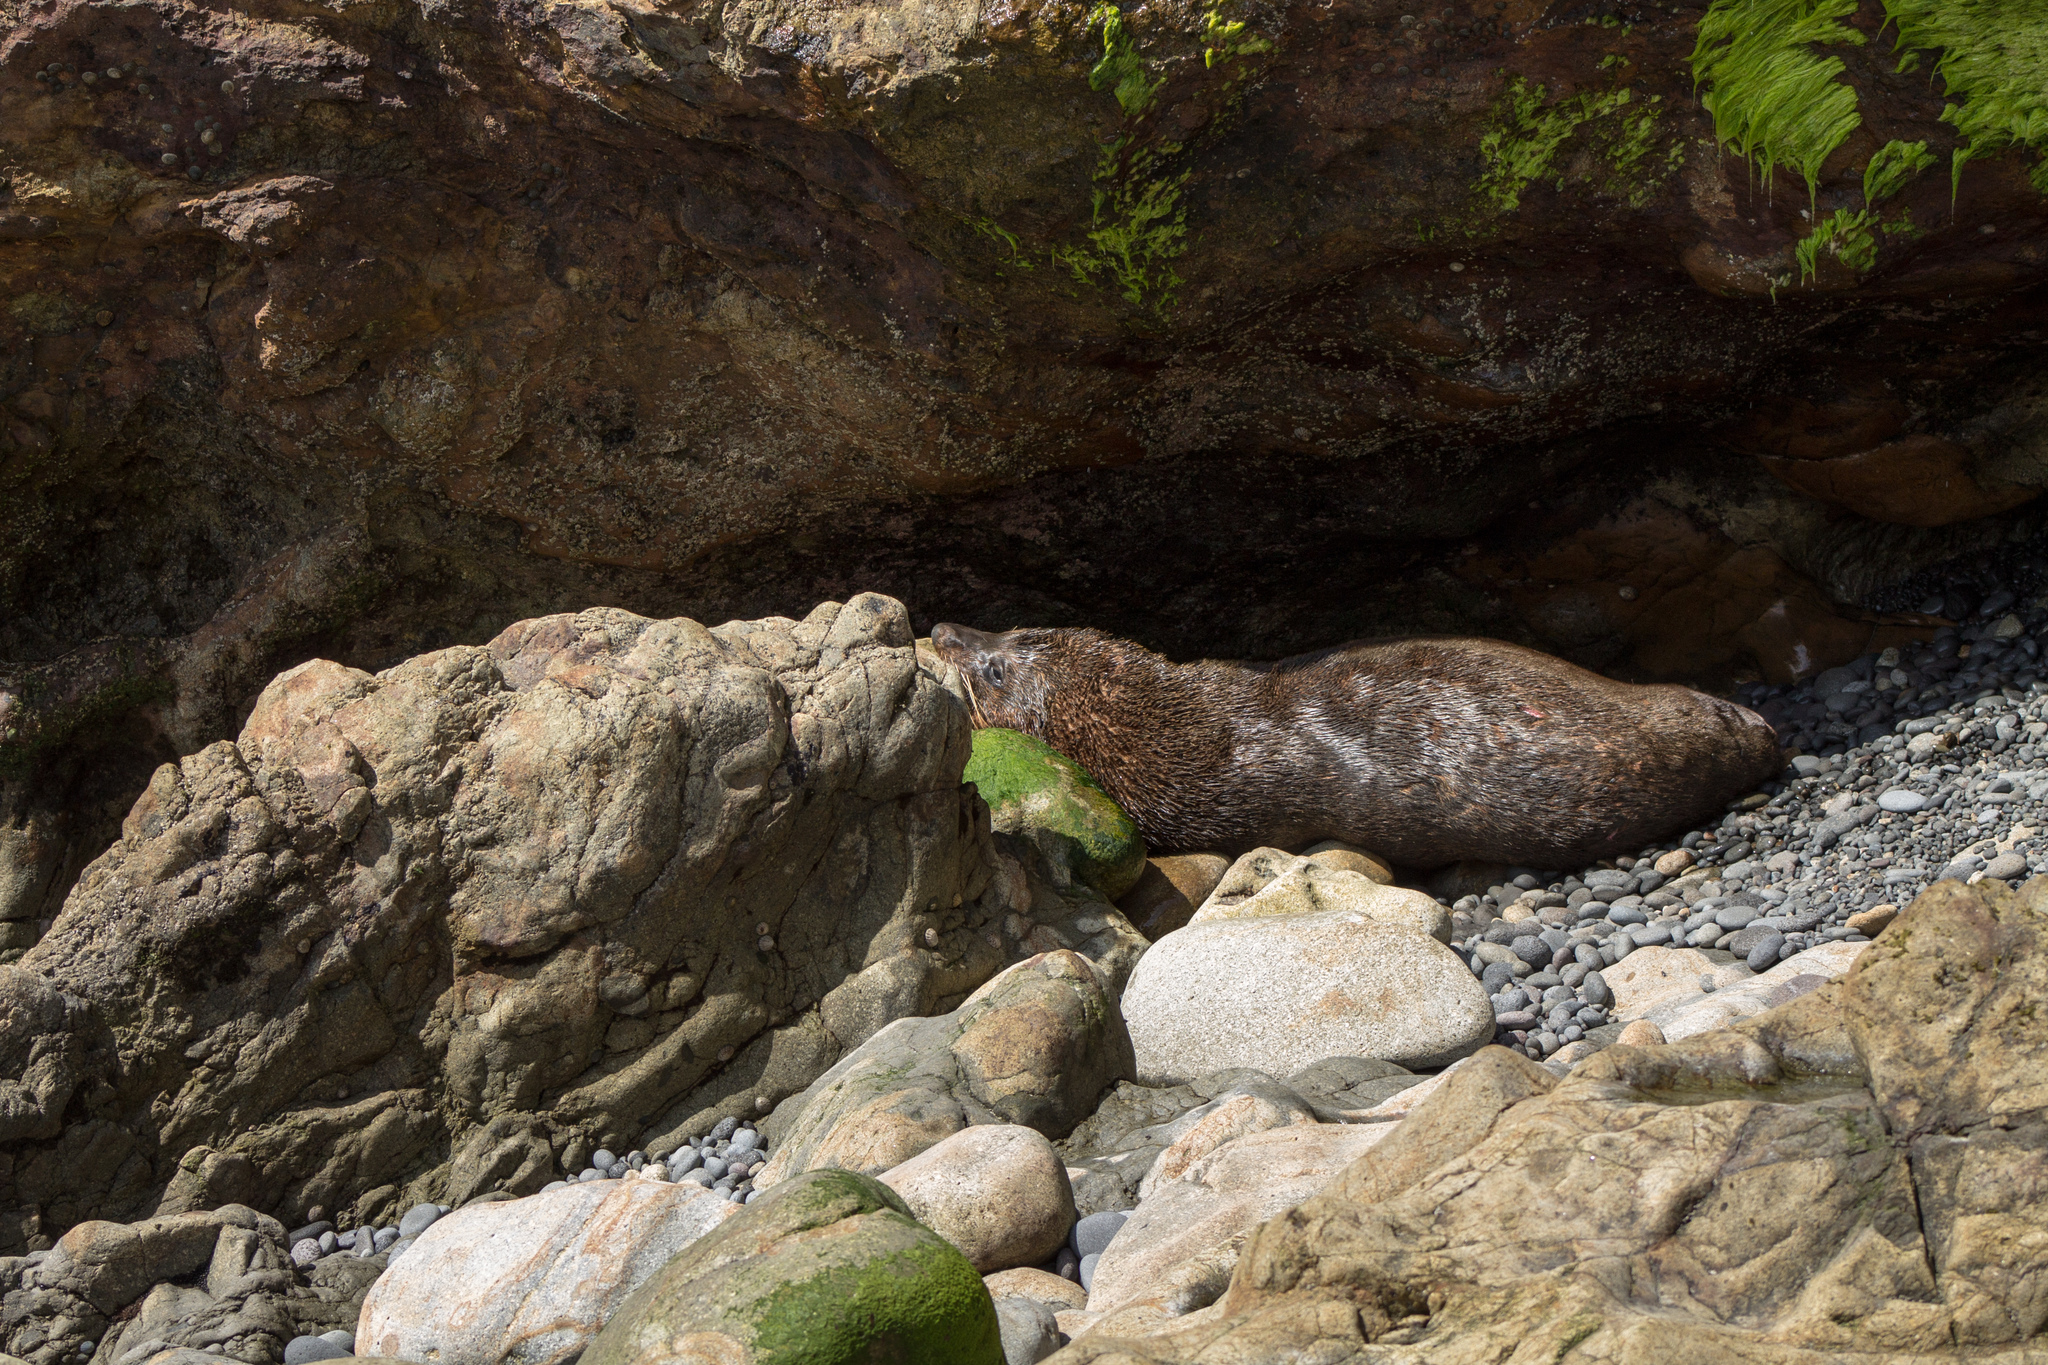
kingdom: Animalia
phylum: Chordata
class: Mammalia
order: Carnivora
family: Otariidae
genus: Arctocephalus
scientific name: Arctocephalus forsteri
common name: New zealand fur seal
